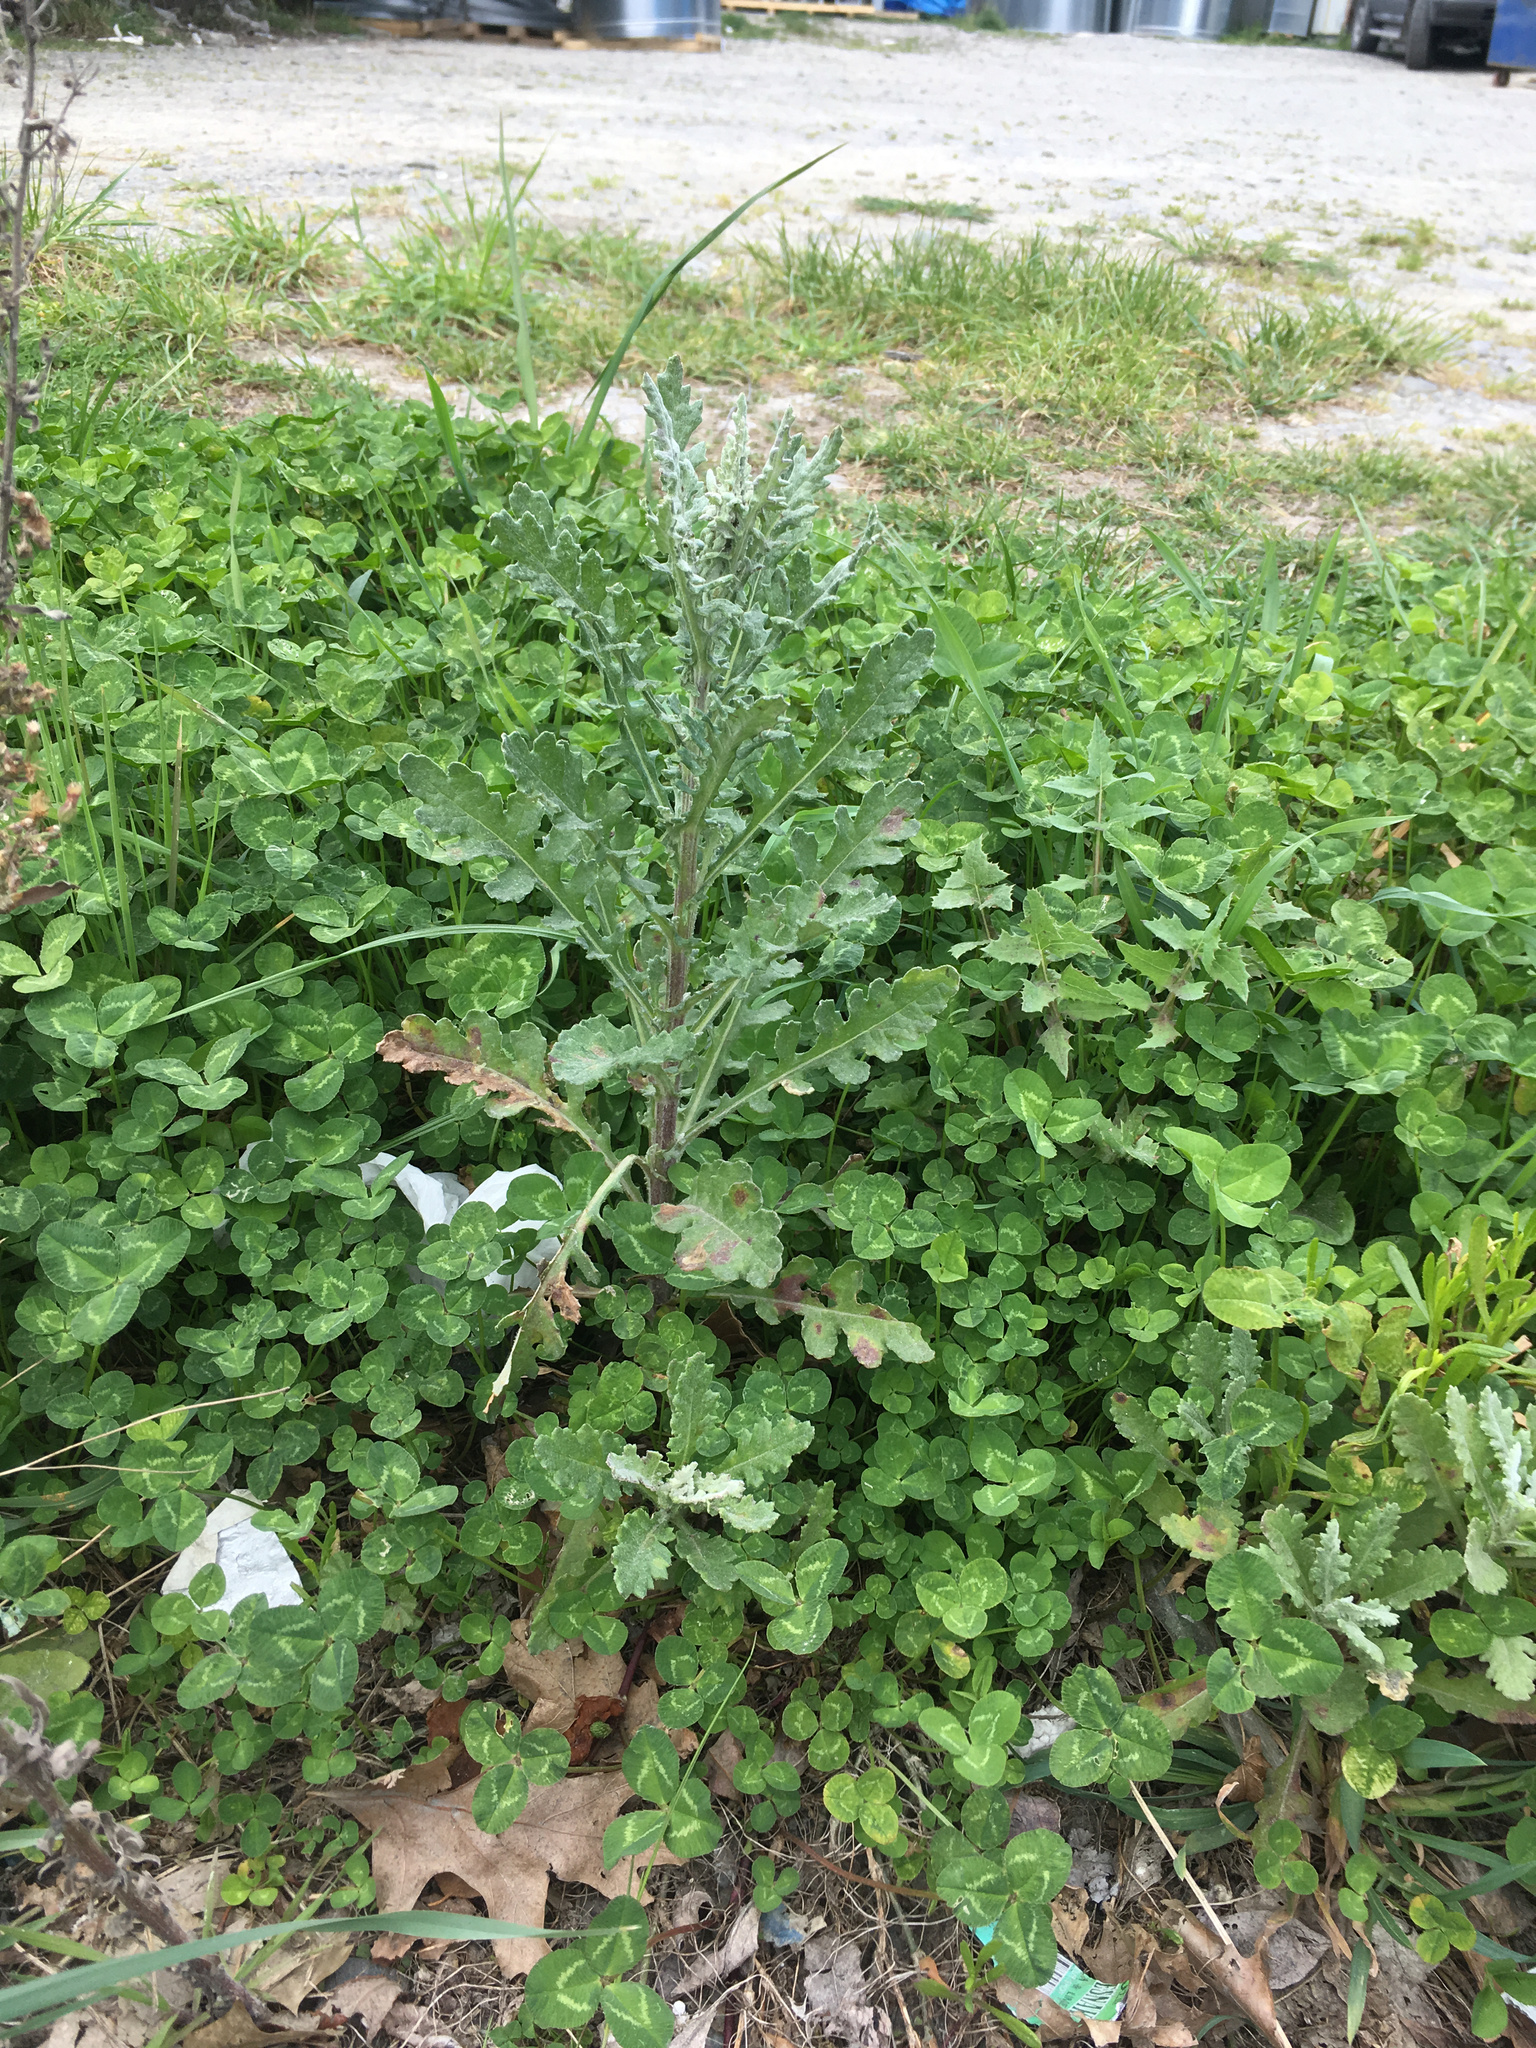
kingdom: Plantae
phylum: Tracheophyta
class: Magnoliopsida
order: Asterales
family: Asteraceae
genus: Senecio
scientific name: Senecio glomeratus
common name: Cutleaf burnweed
